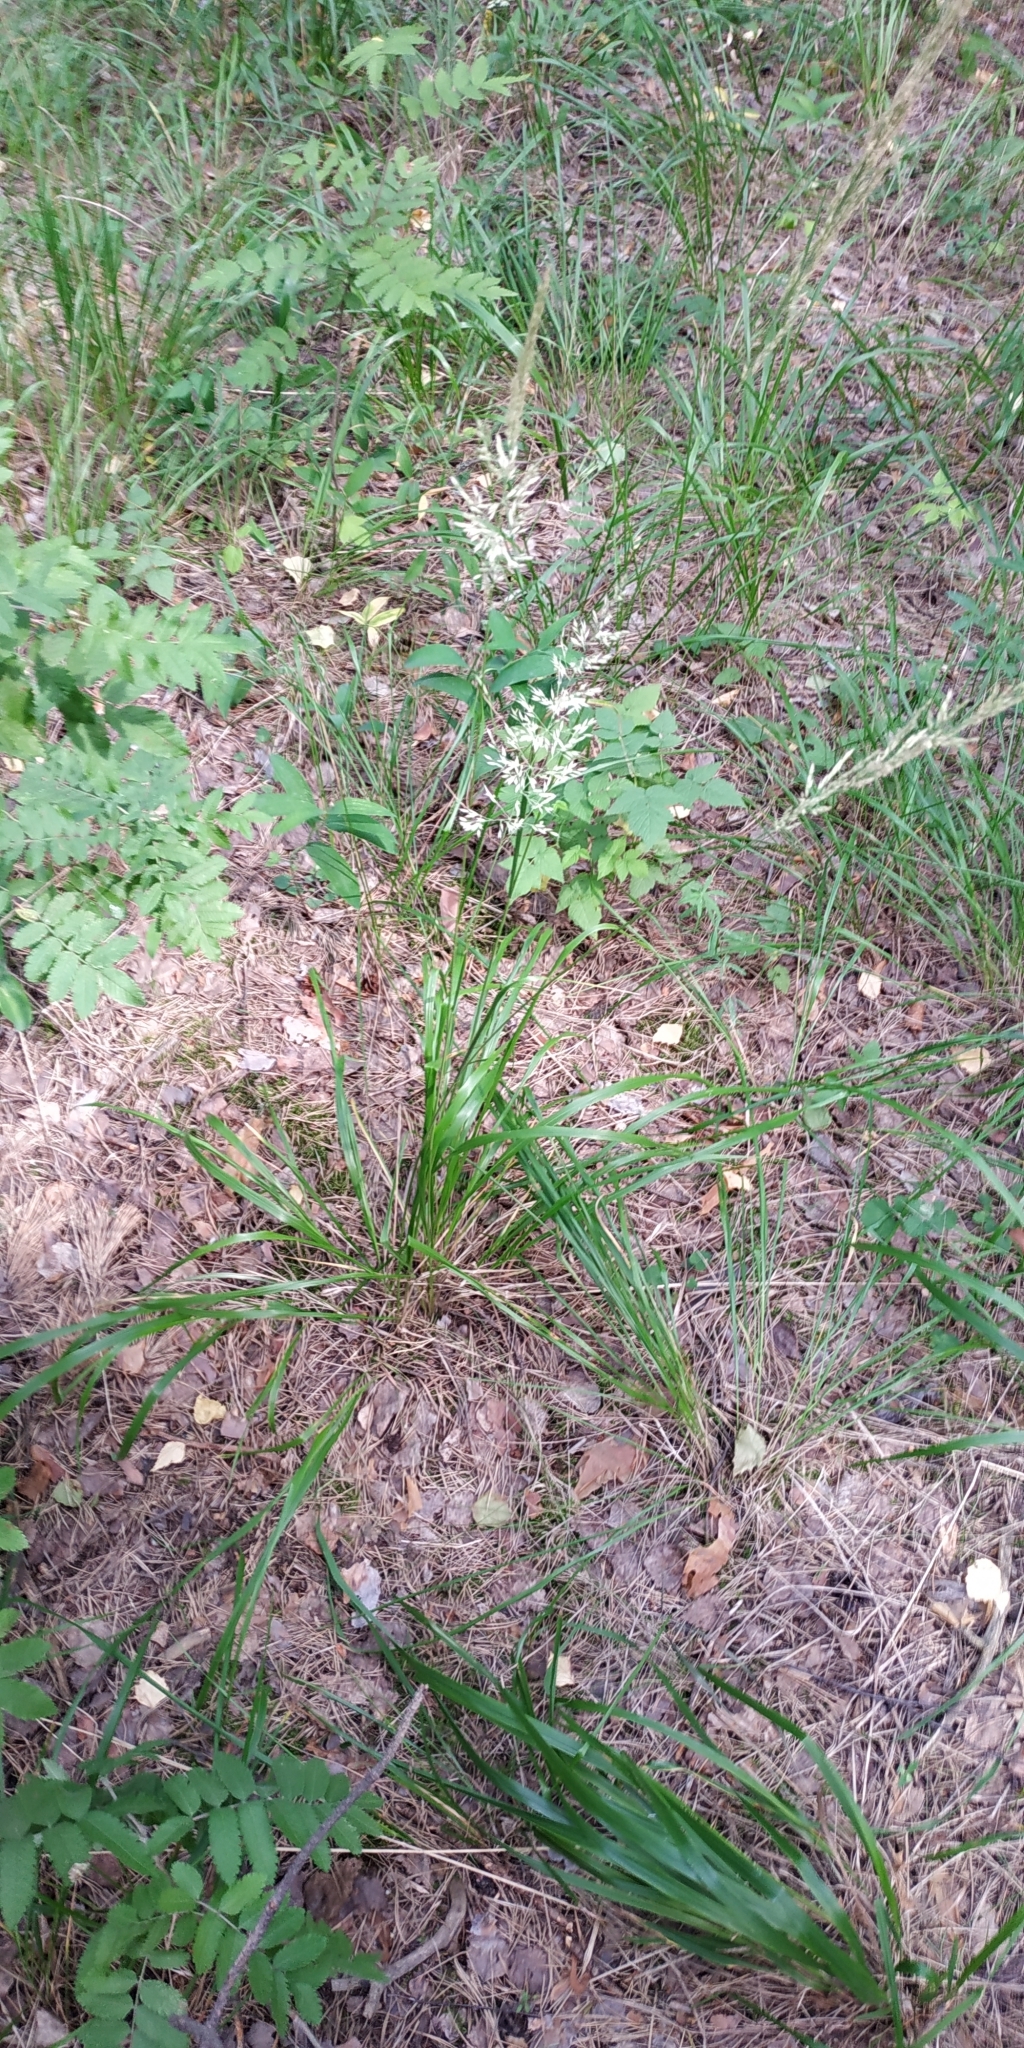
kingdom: Plantae
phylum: Tracheophyta
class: Liliopsida
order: Poales
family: Poaceae
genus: Calamagrostis
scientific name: Calamagrostis arundinacea
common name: Metskastik
